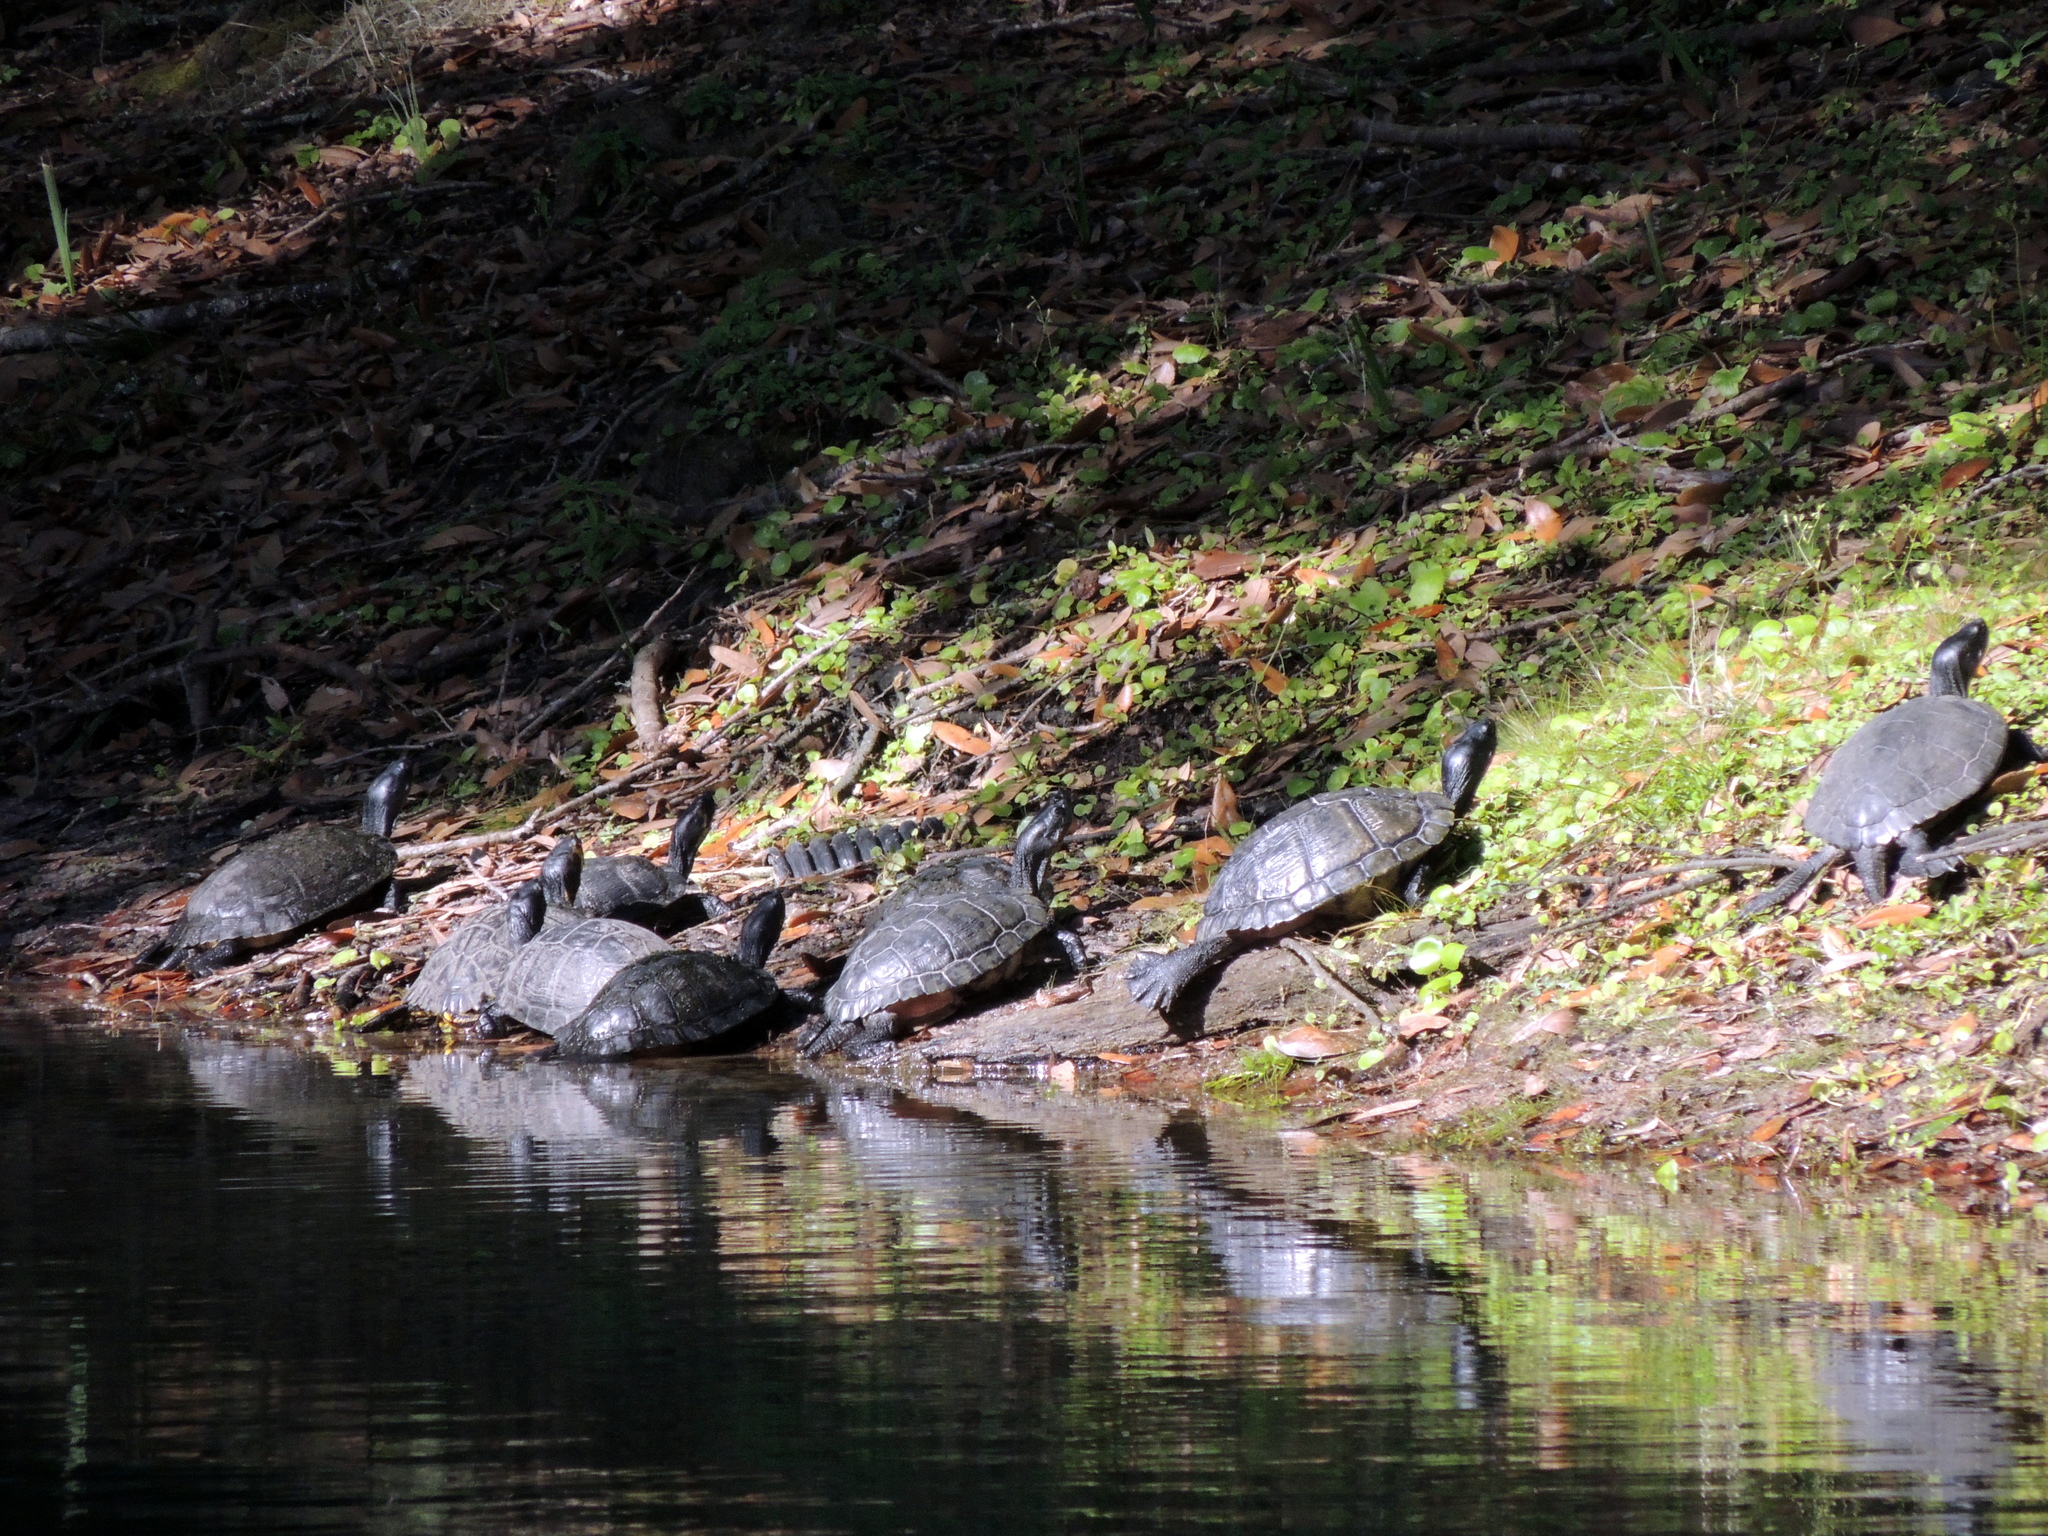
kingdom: Animalia
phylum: Chordata
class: Testudines
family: Emydidae
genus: Trachemys
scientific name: Trachemys scripta
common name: Slider
